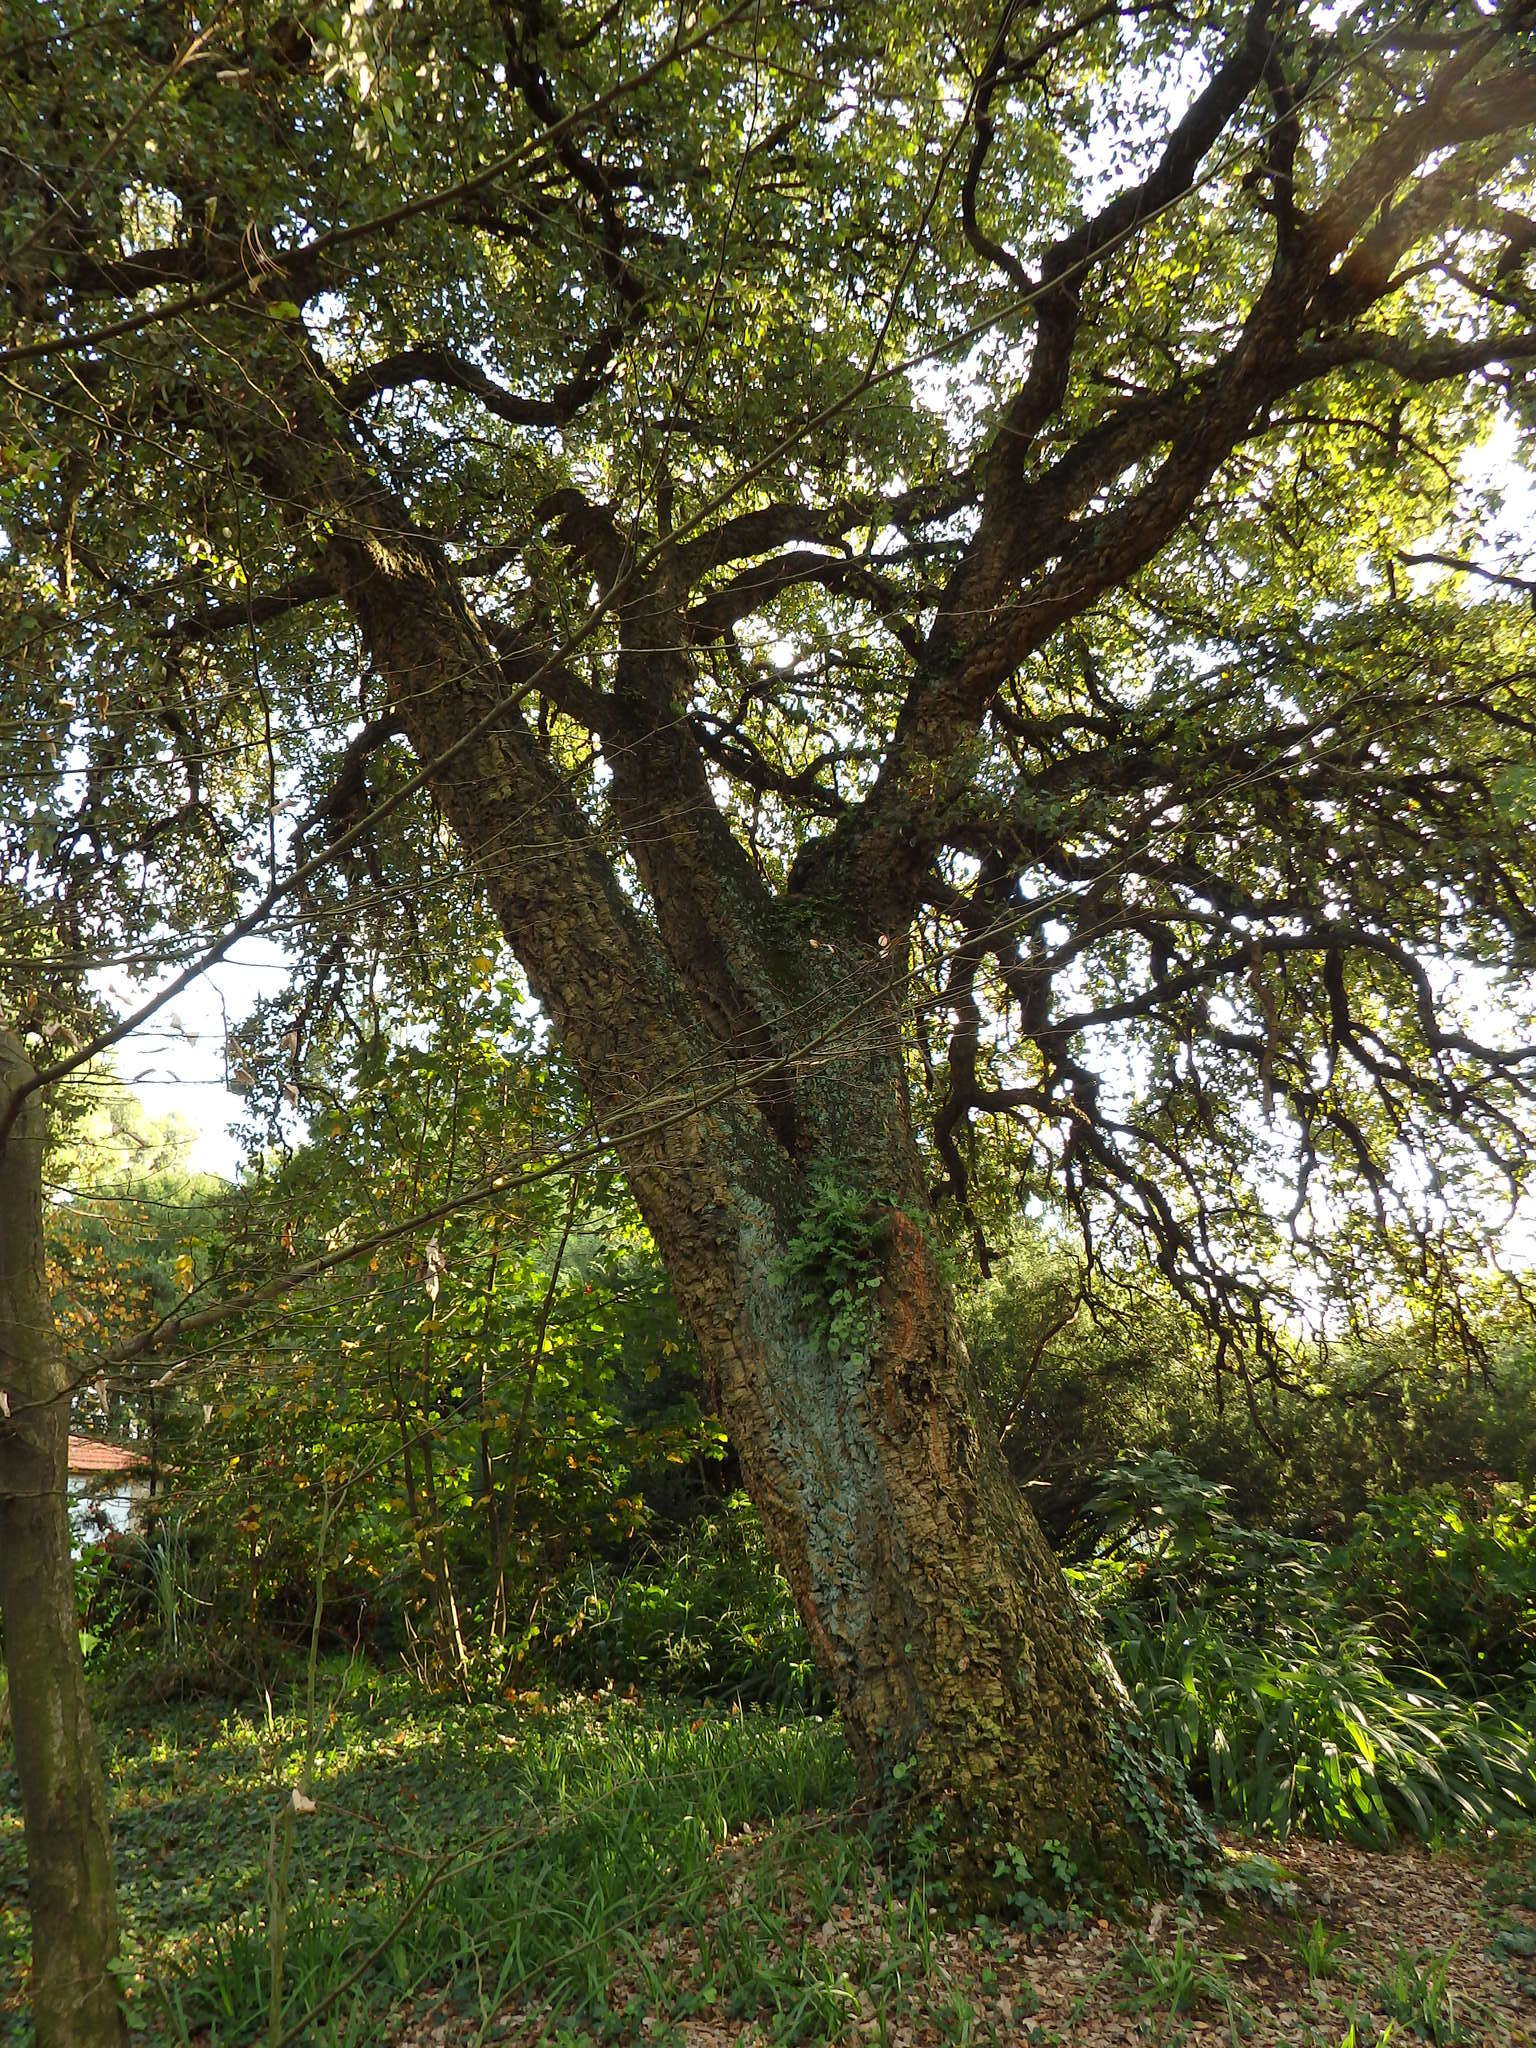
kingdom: Plantae
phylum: Tracheophyta
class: Magnoliopsida
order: Fagales
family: Fagaceae
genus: Quercus
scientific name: Quercus suber
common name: Cork oak
